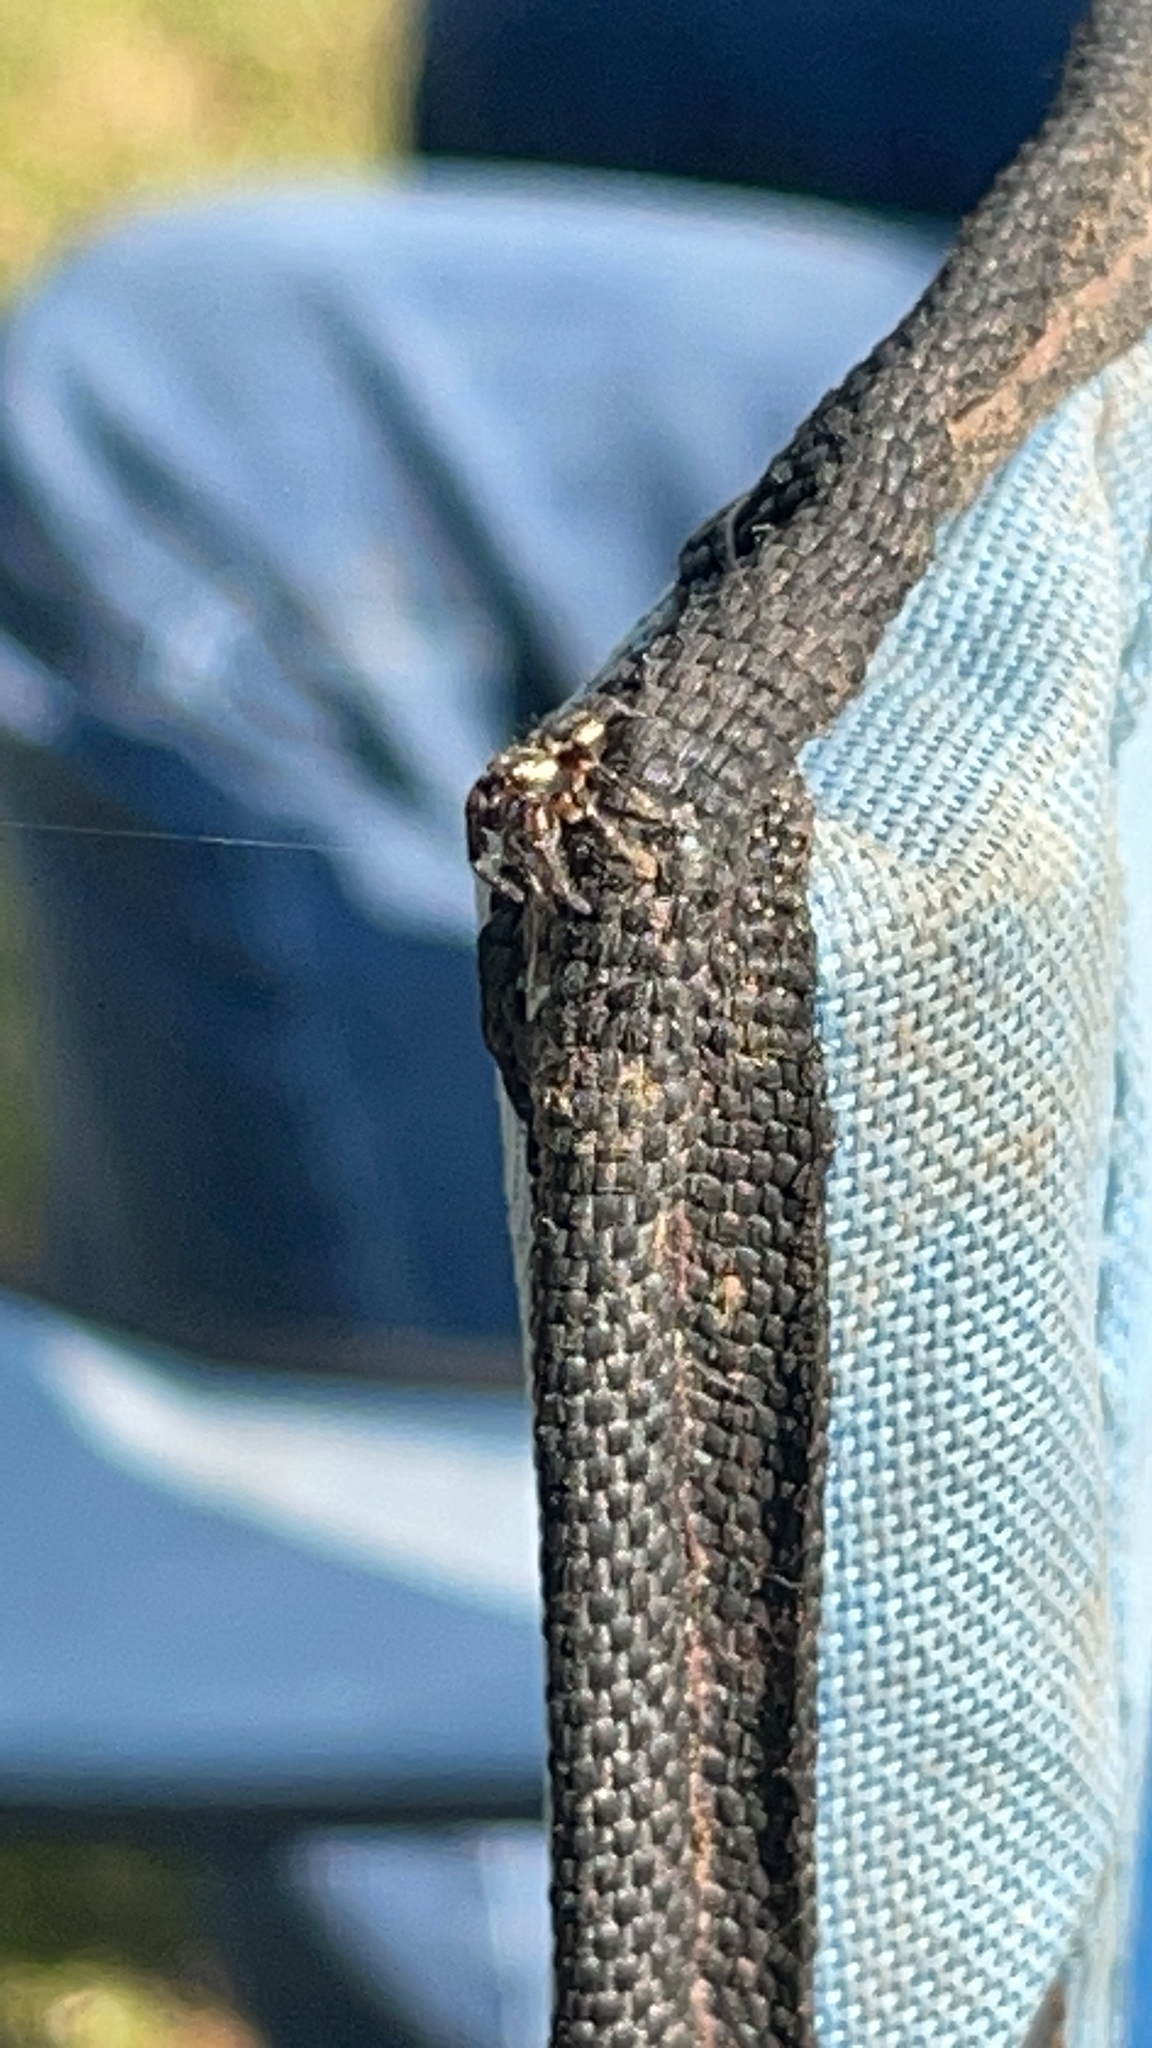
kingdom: Animalia
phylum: Arthropoda
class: Arachnida
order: Araneae
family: Salticidae
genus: Eris
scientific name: Eris militaris
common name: Bronze jumper
